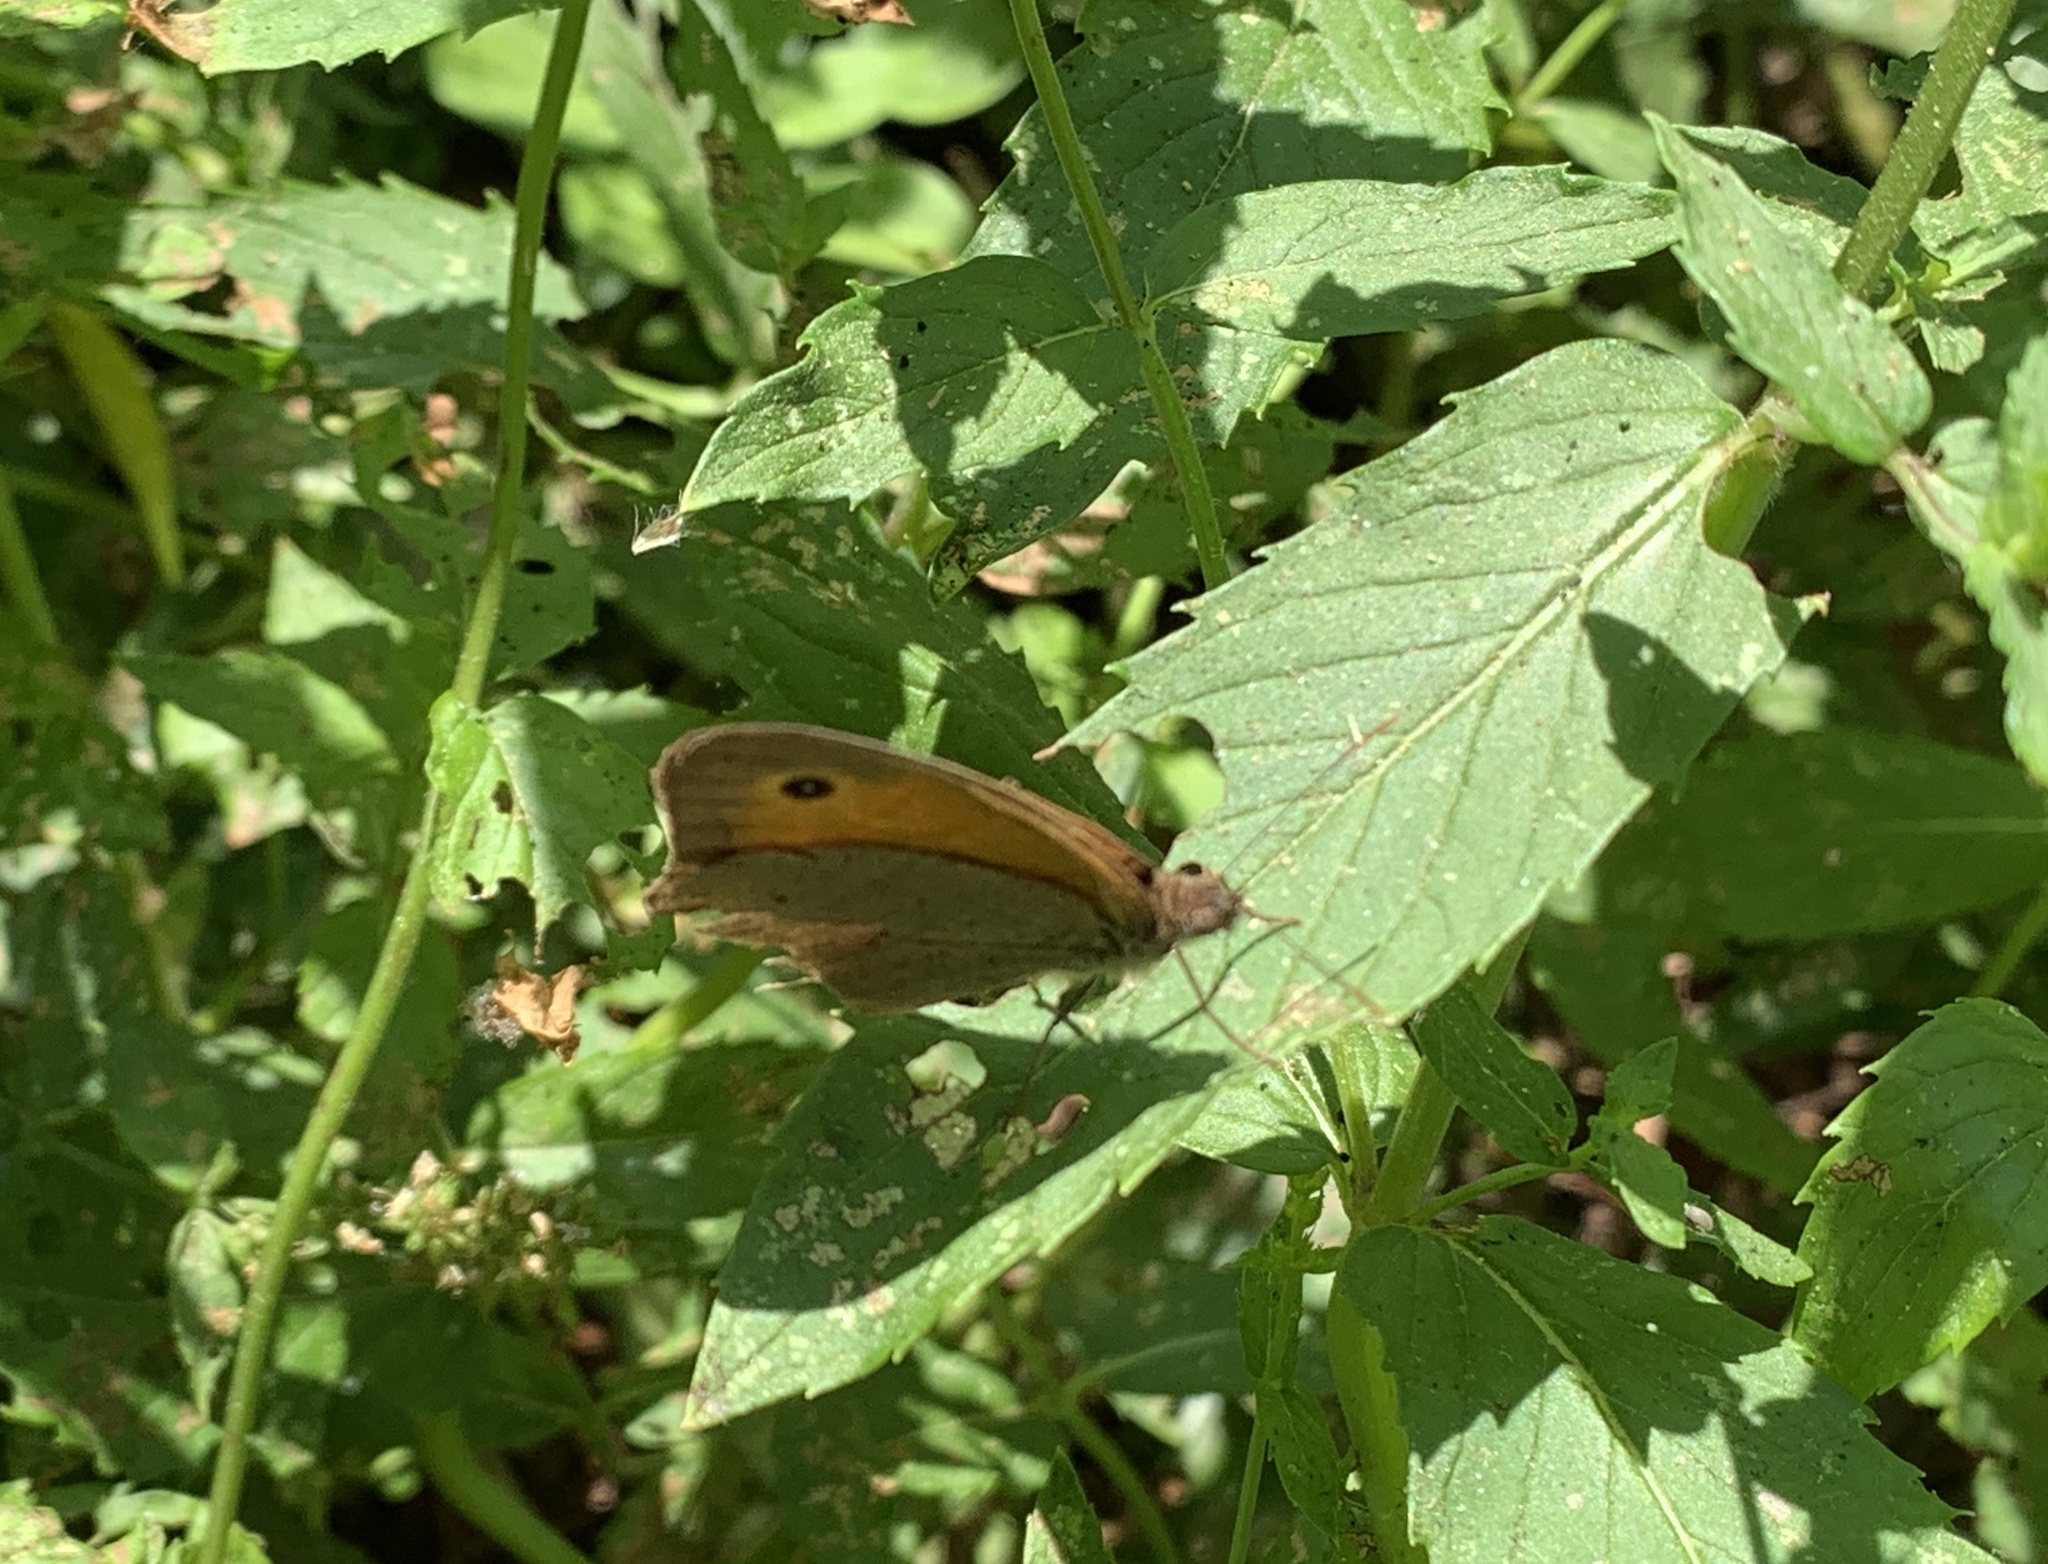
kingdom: Animalia
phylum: Arthropoda
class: Insecta
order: Lepidoptera
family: Nymphalidae
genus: Maniola
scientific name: Maniola jurtina
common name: Meadow brown
